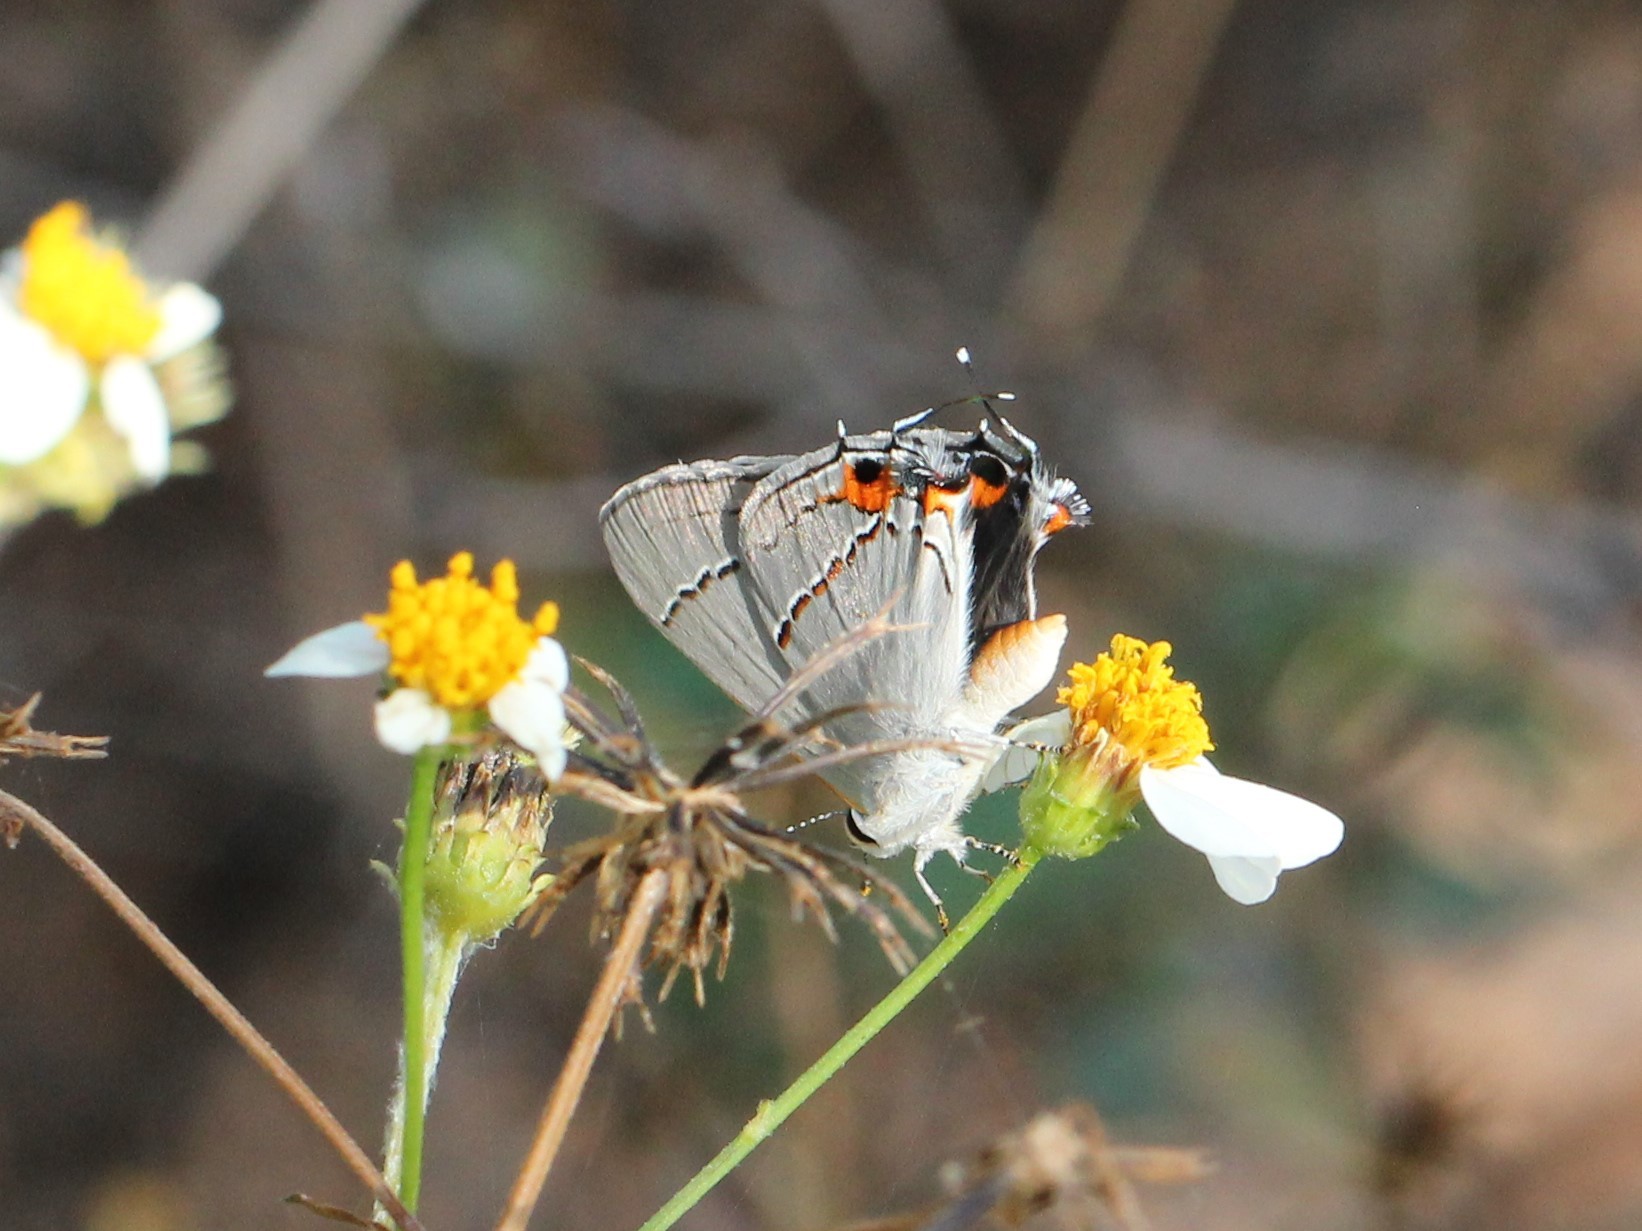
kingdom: Animalia
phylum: Arthropoda
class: Insecta
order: Lepidoptera
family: Lycaenidae
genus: Strymon
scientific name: Strymon melinus
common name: Gray hairstreak
